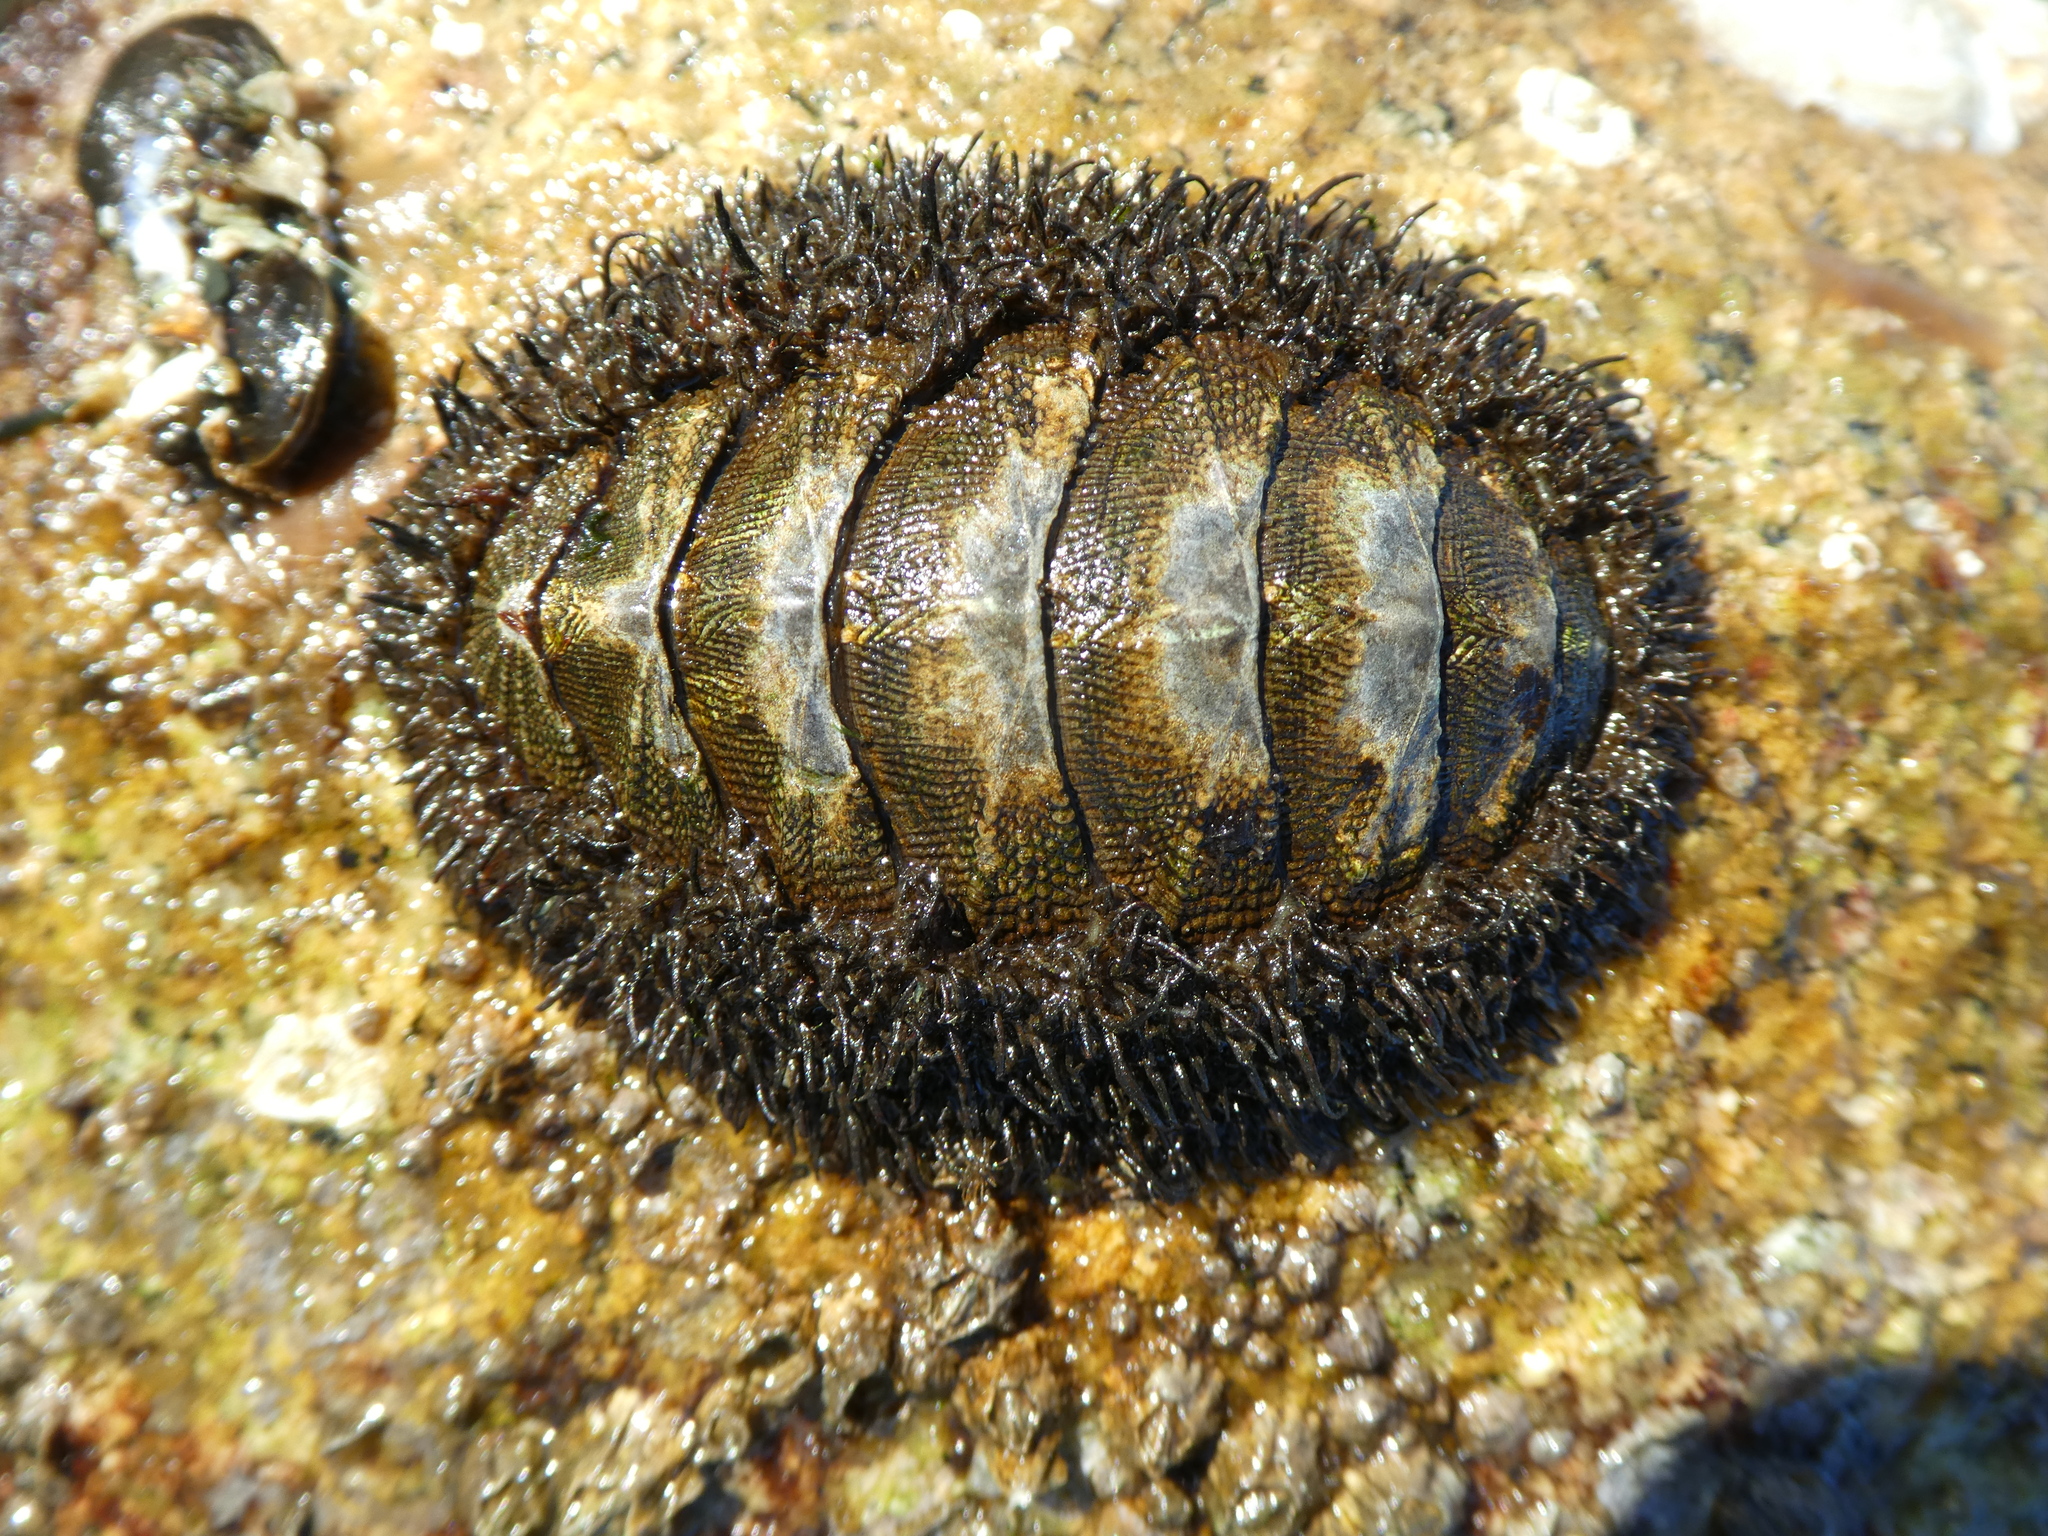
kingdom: Animalia
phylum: Mollusca
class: Polyplacophora
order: Chitonida
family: Mopaliidae
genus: Mopalia
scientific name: Mopalia muscosa
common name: Mossy chiton
